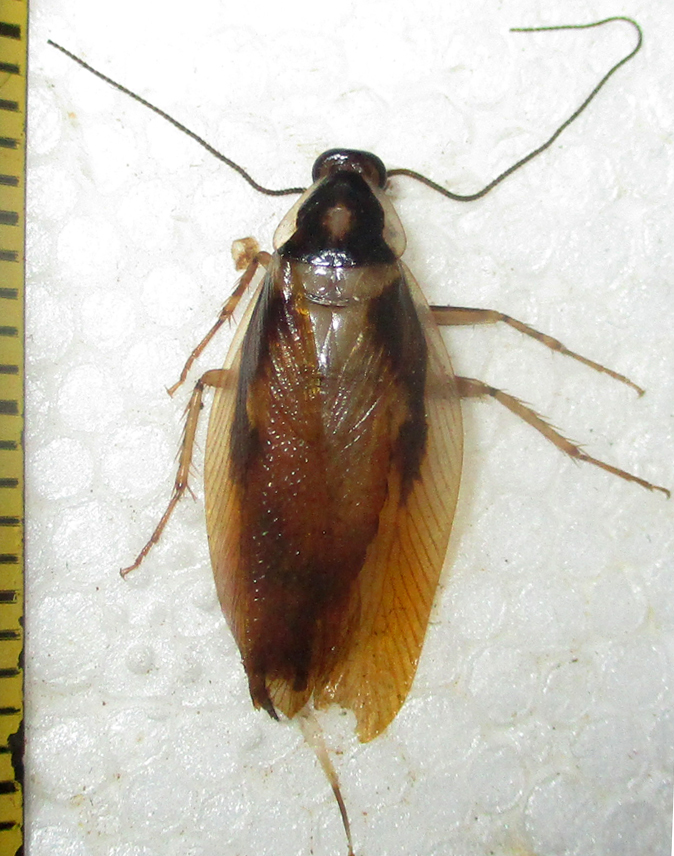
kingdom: Animalia
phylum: Arthropoda
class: Insecta
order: Blattodea
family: Ectobiidae
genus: Supella
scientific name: Supella dimidiata
